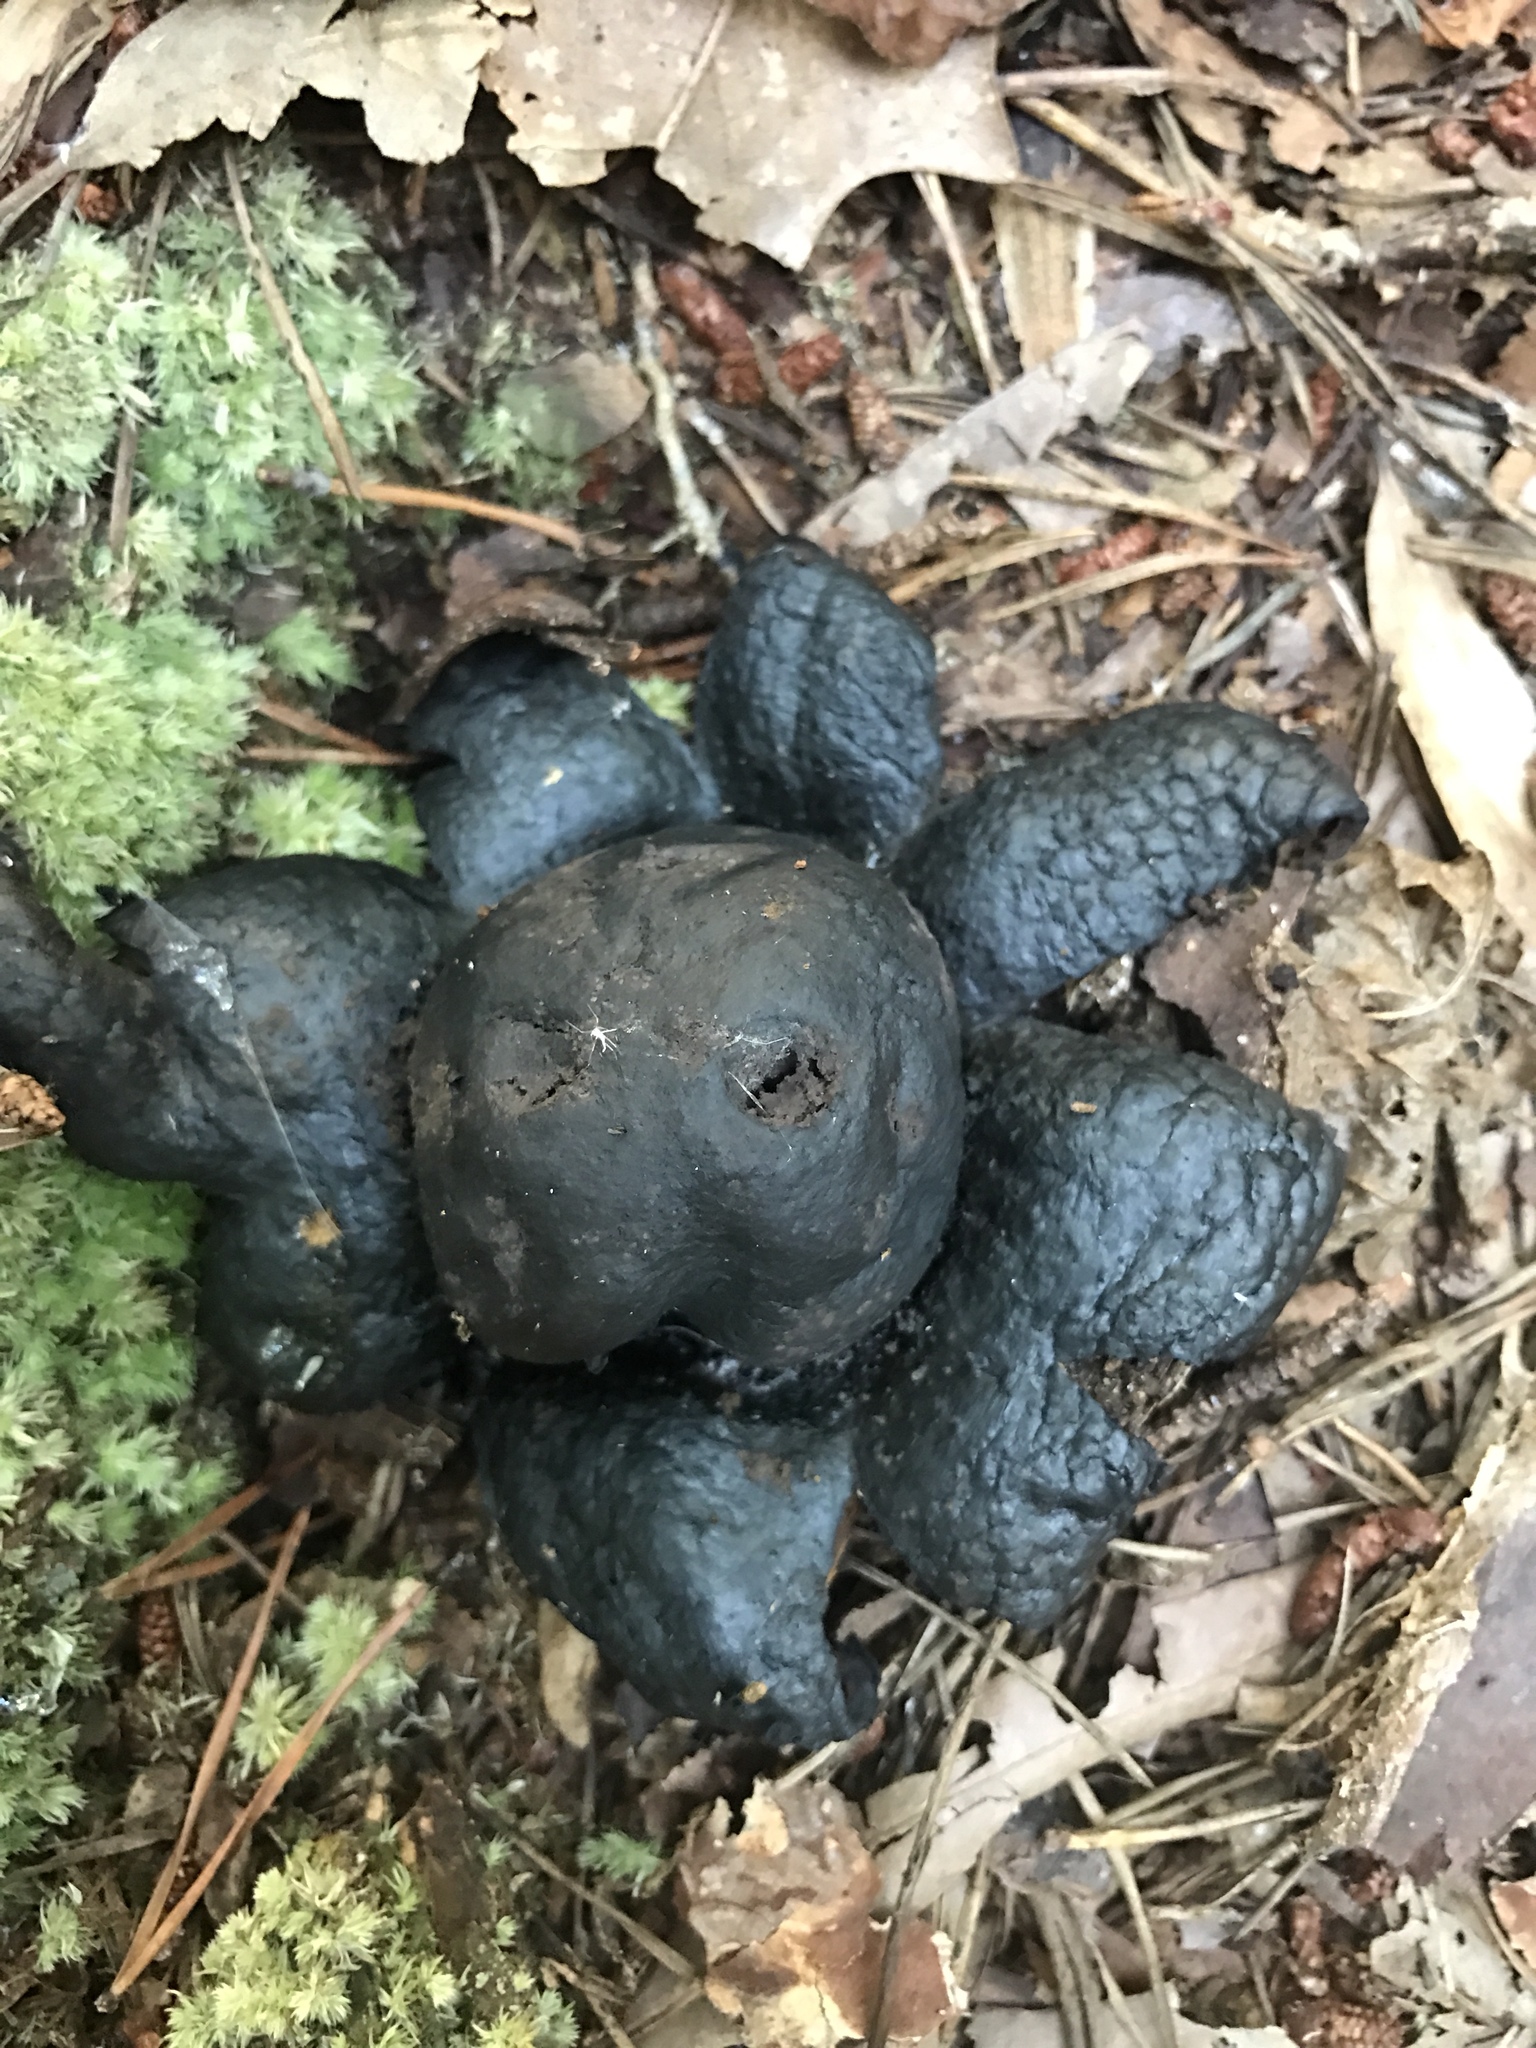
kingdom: Fungi
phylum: Basidiomycota
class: Agaricomycetes
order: Boletales
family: Diplocystidiaceae
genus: Astraeus
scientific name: Astraeus hygrometricus
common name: Barometer earthstar
